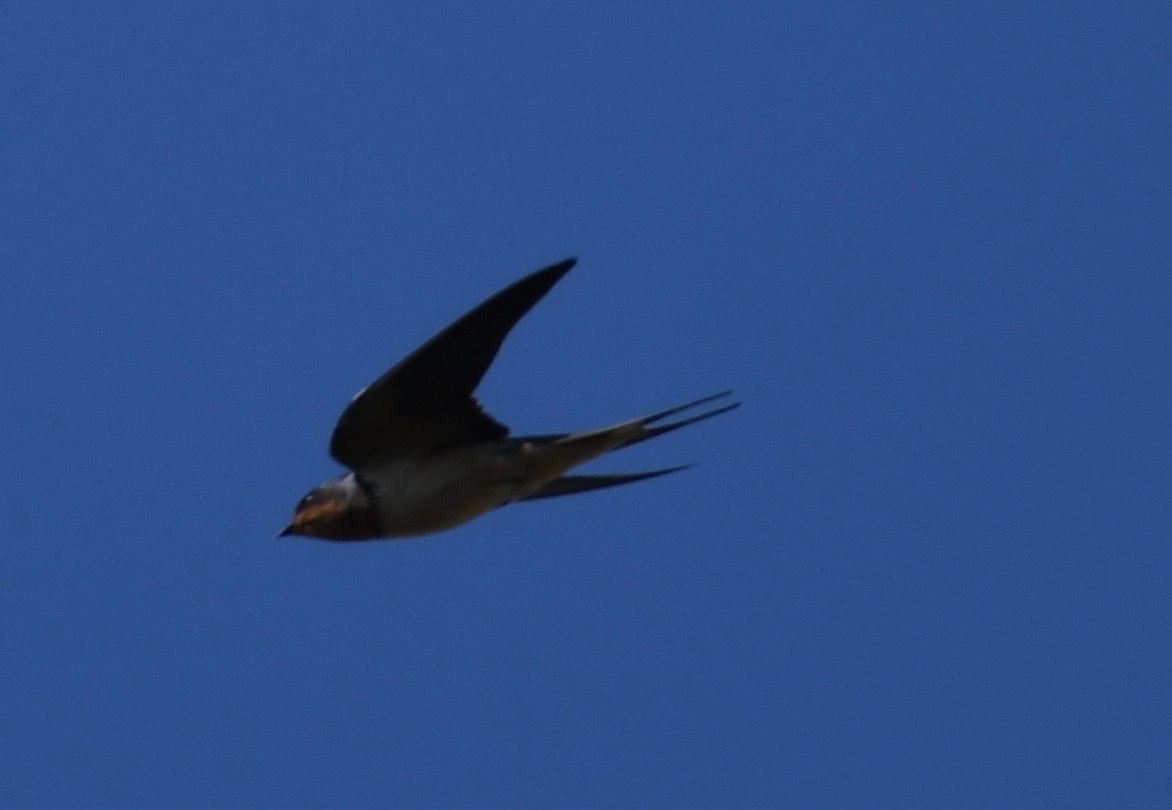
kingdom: Animalia
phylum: Chordata
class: Aves
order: Passeriformes
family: Hirundinidae
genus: Hirundo
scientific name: Hirundo rustica
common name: Barn swallow
